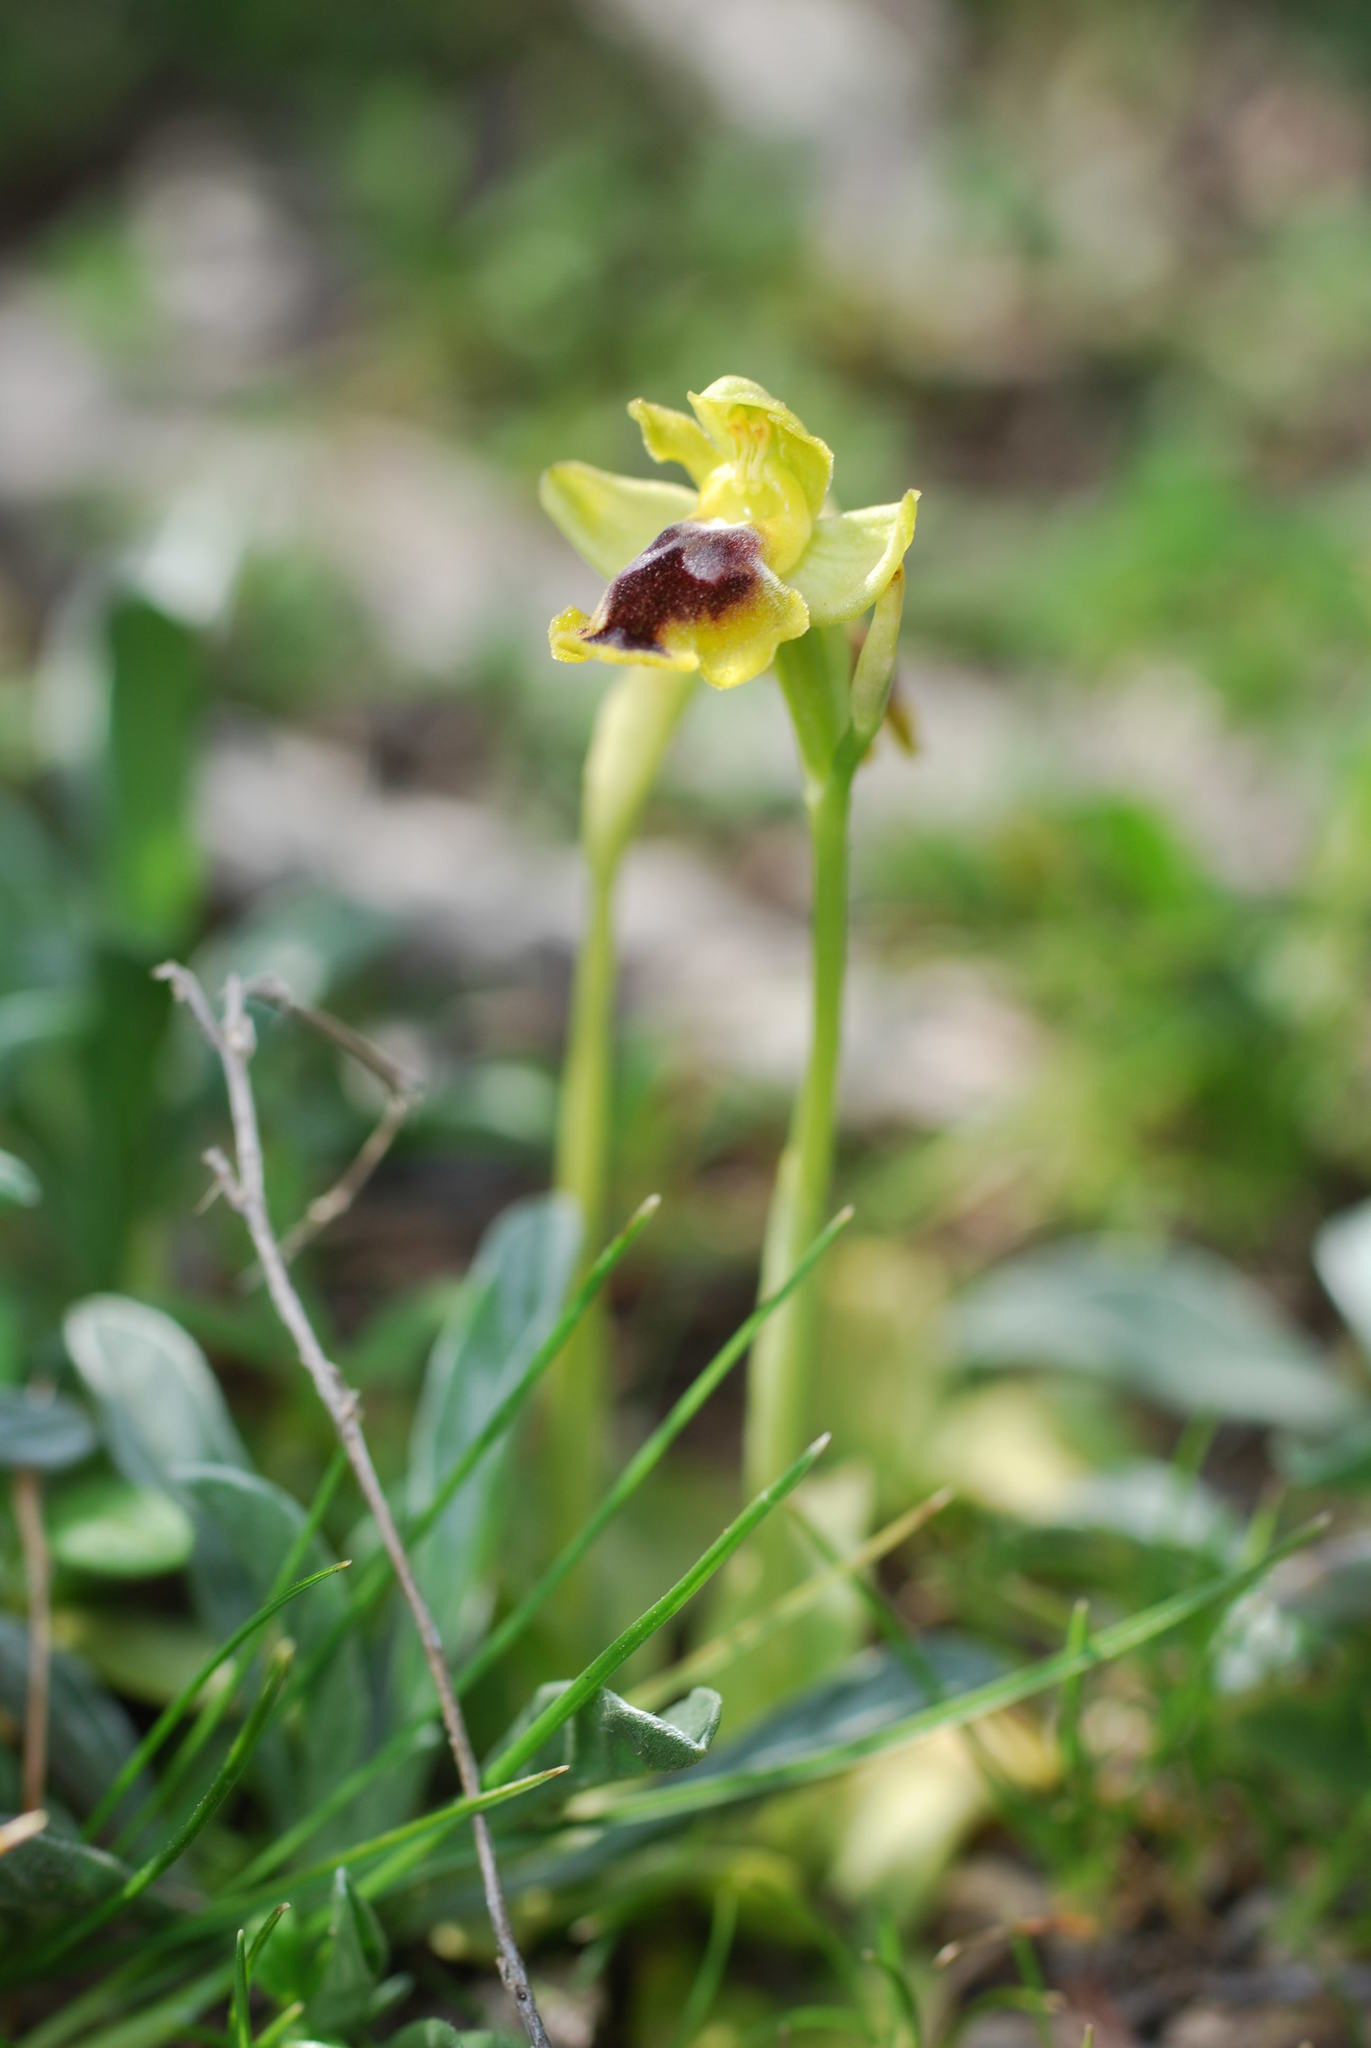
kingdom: Plantae
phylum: Tracheophyta
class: Liliopsida
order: Asparagales
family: Orchidaceae
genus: Ophrys
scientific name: Ophrys lutea
